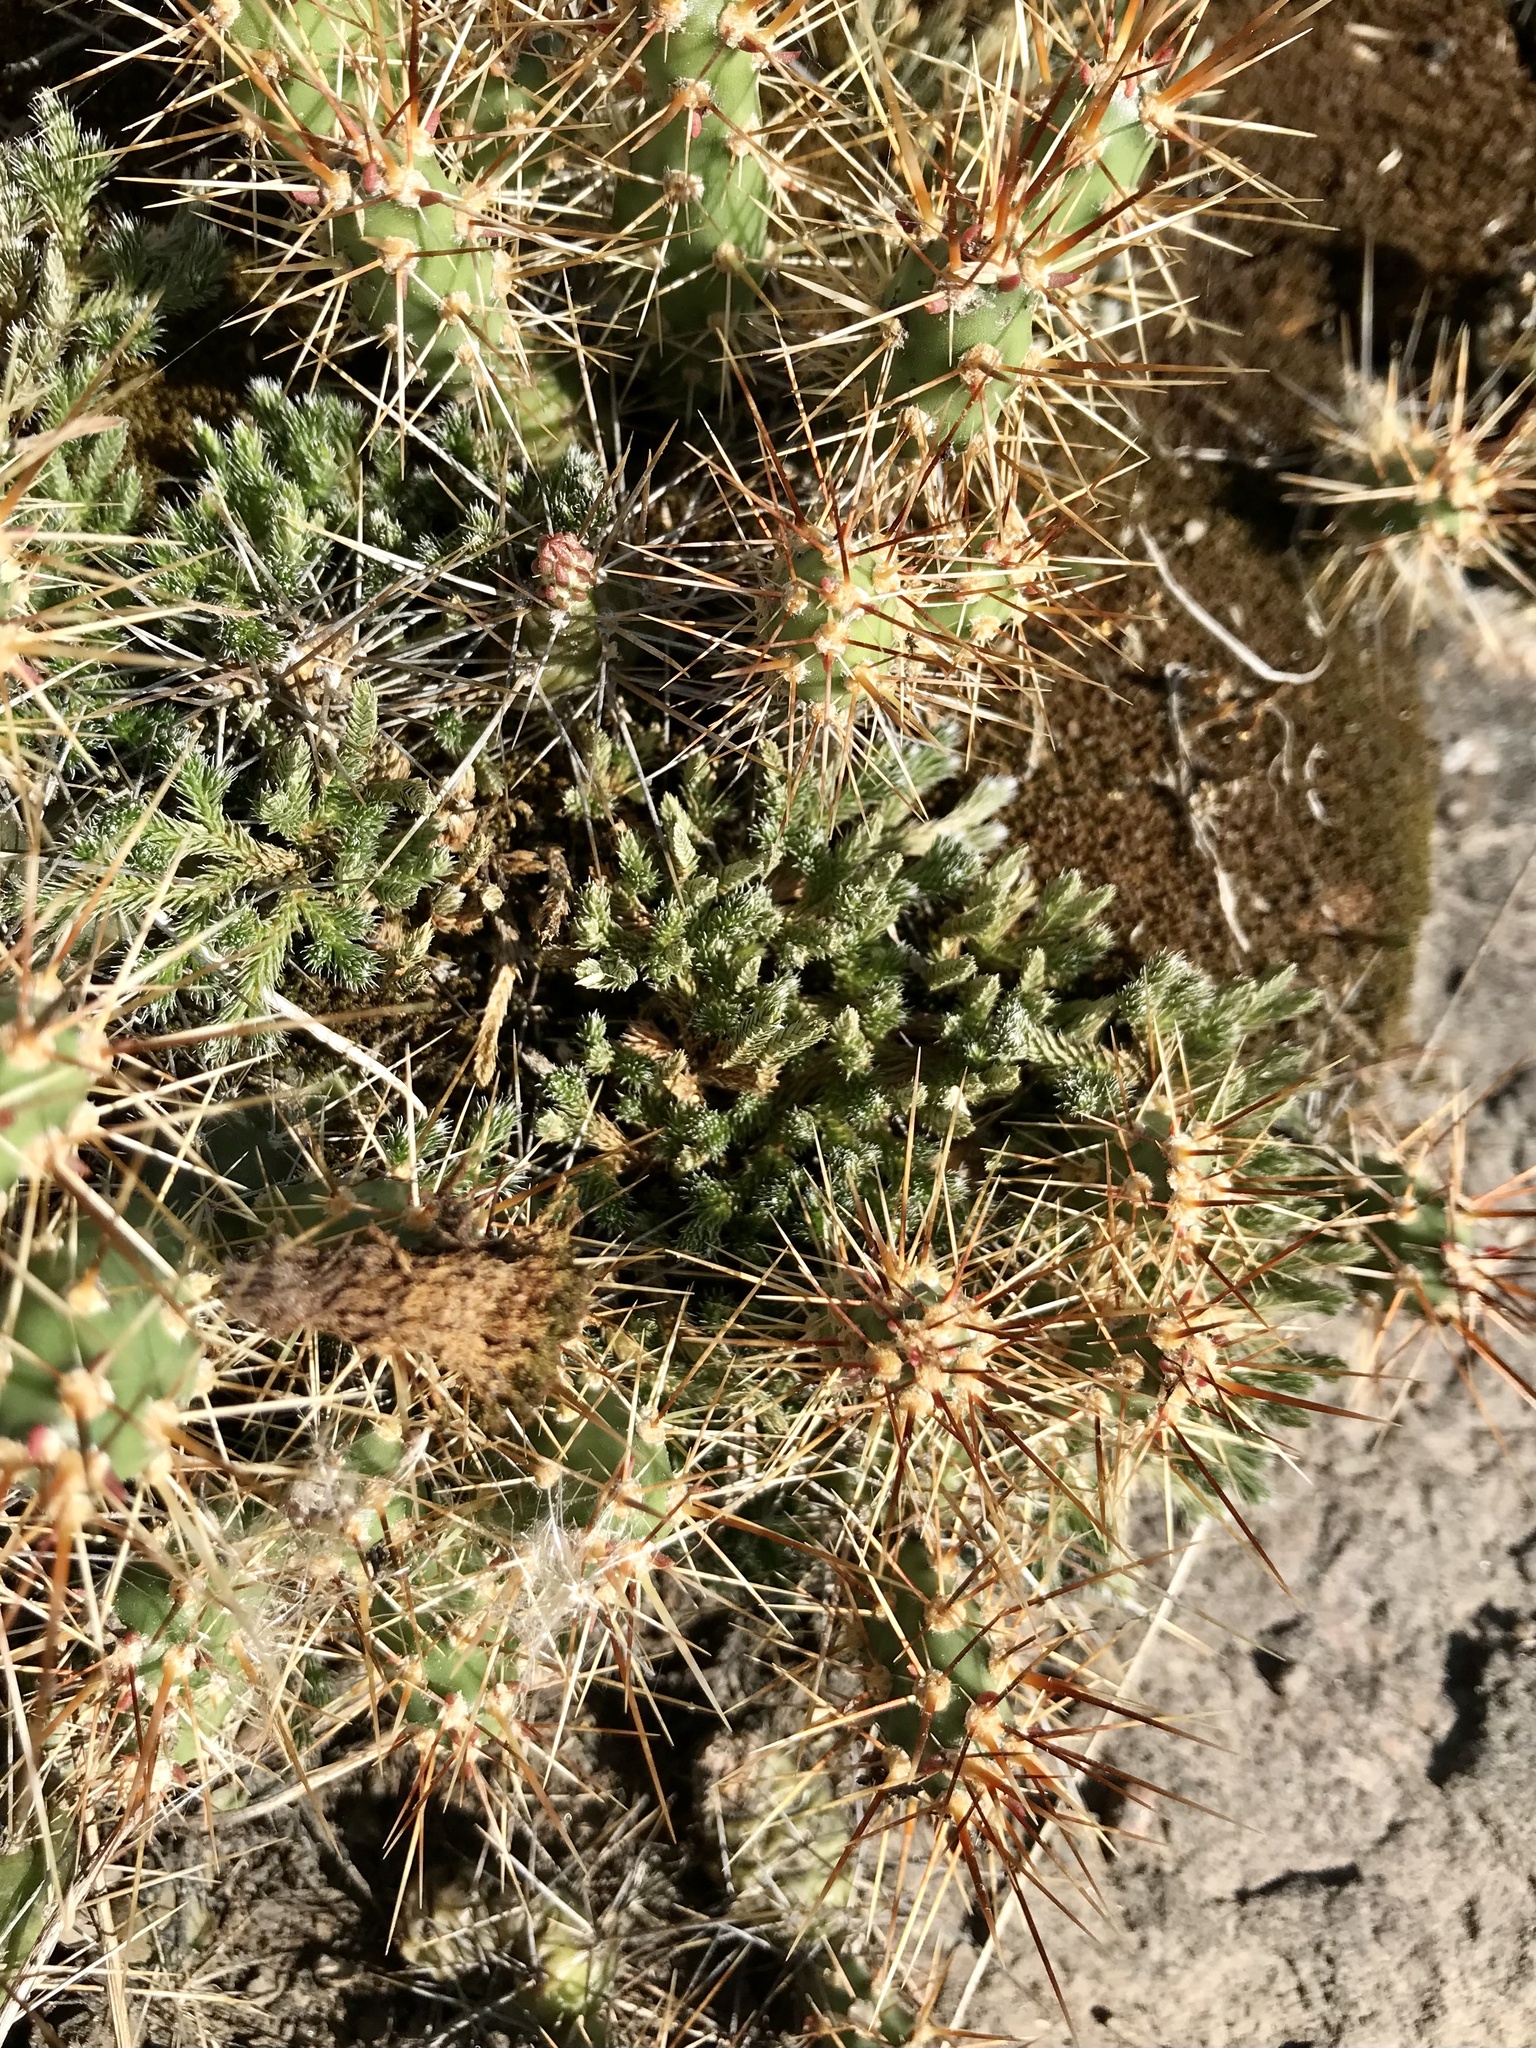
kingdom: Plantae
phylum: Tracheophyta
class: Lycopodiopsida
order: Selaginellales
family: Selaginellaceae
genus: Selaginella
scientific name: Selaginella rupestris
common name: Dwarf spikemoss
